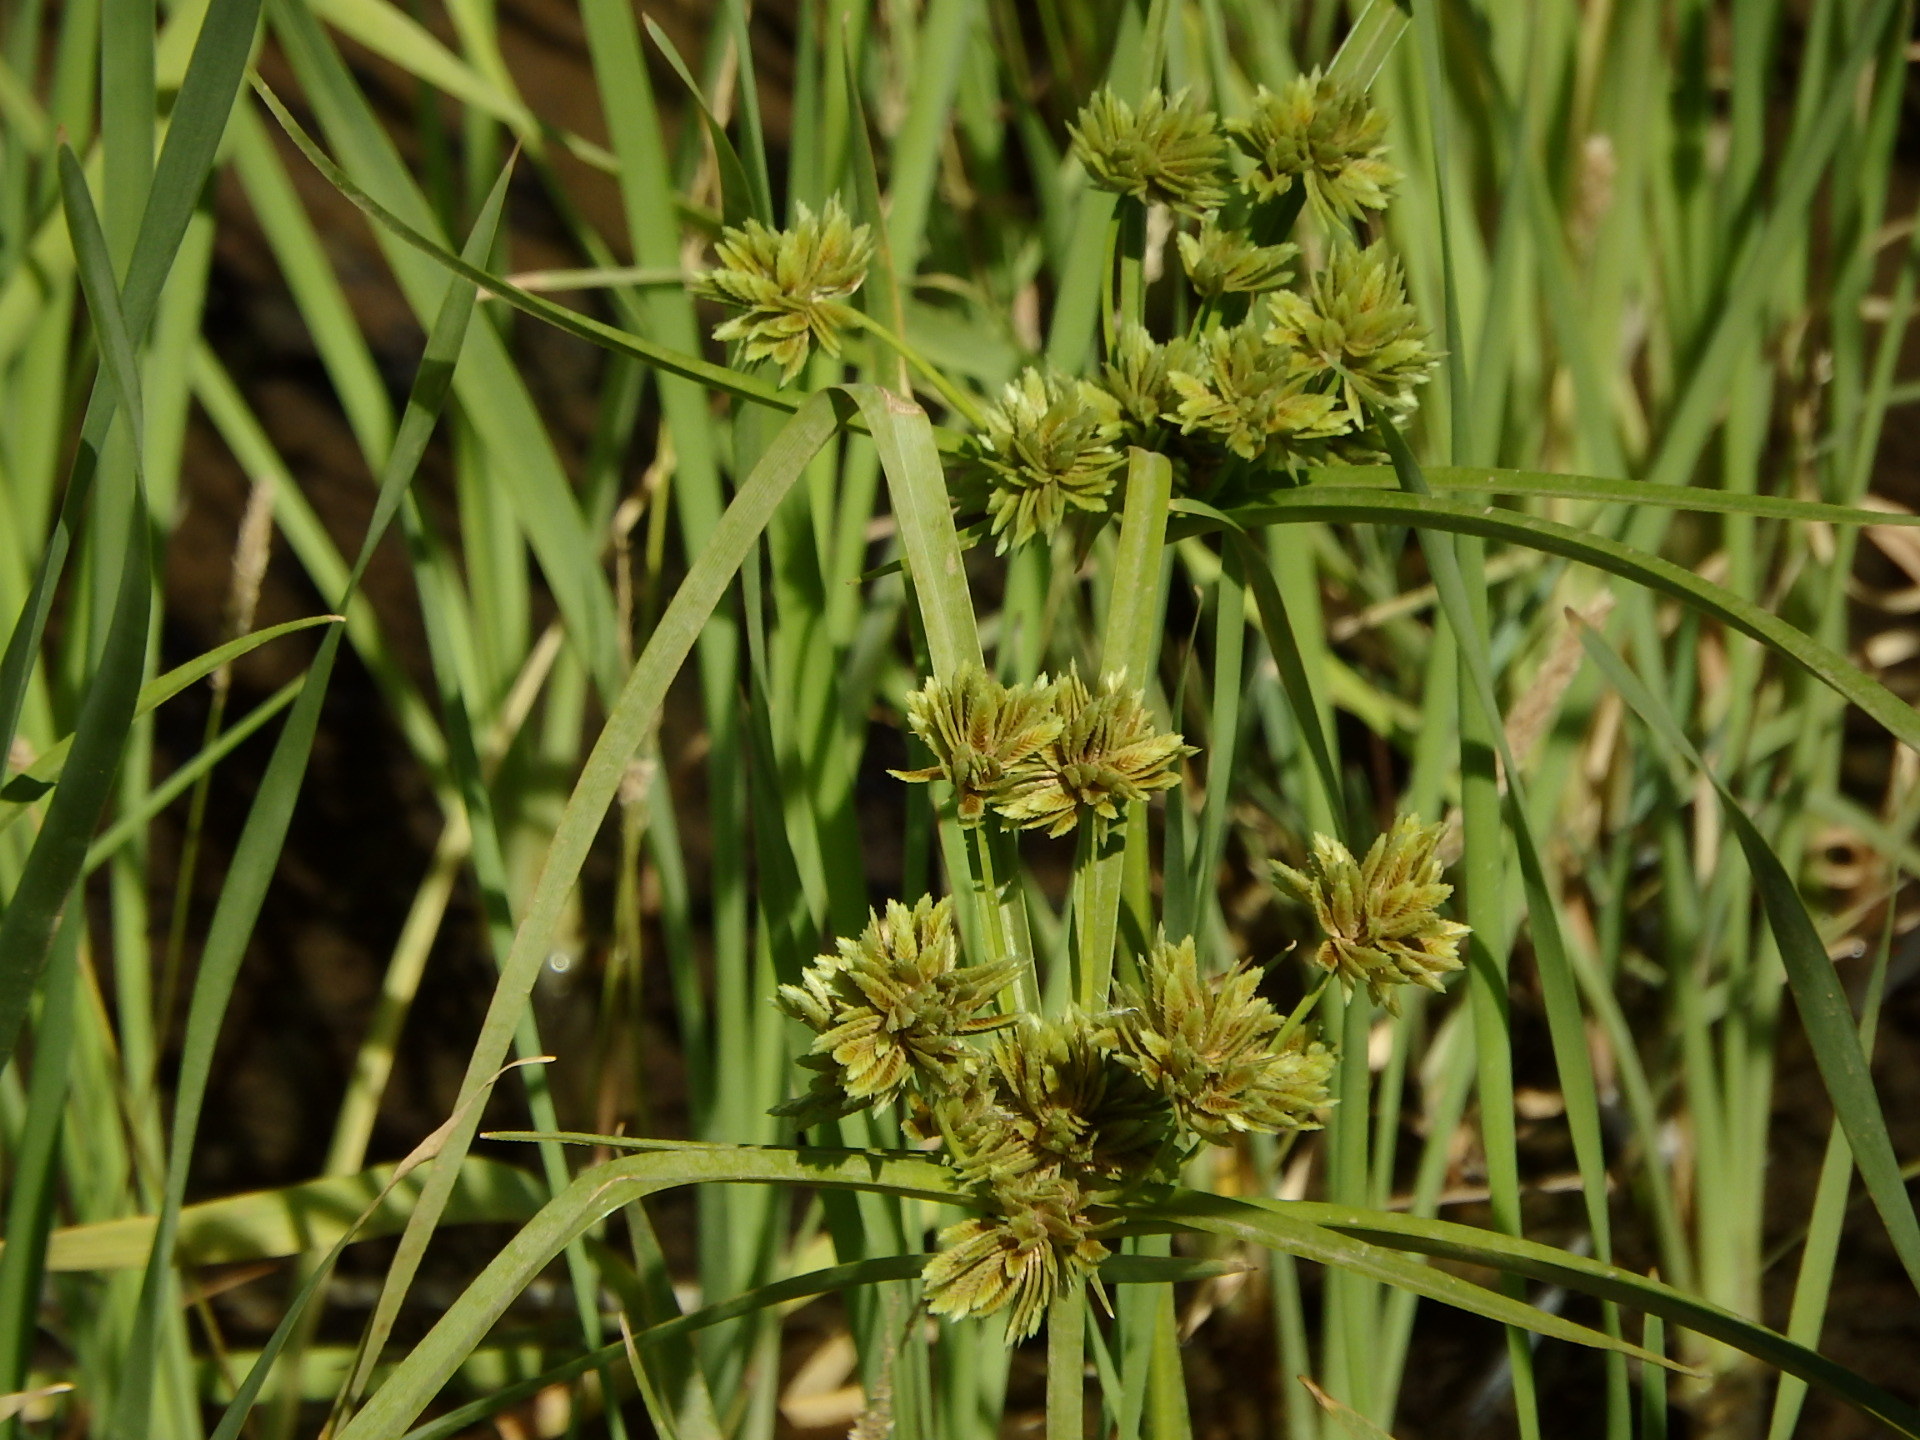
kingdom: Plantae
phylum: Tracheophyta
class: Liliopsida
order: Poales
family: Cyperaceae
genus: Cyperus
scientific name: Cyperus eragrostis
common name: Tall flatsedge
